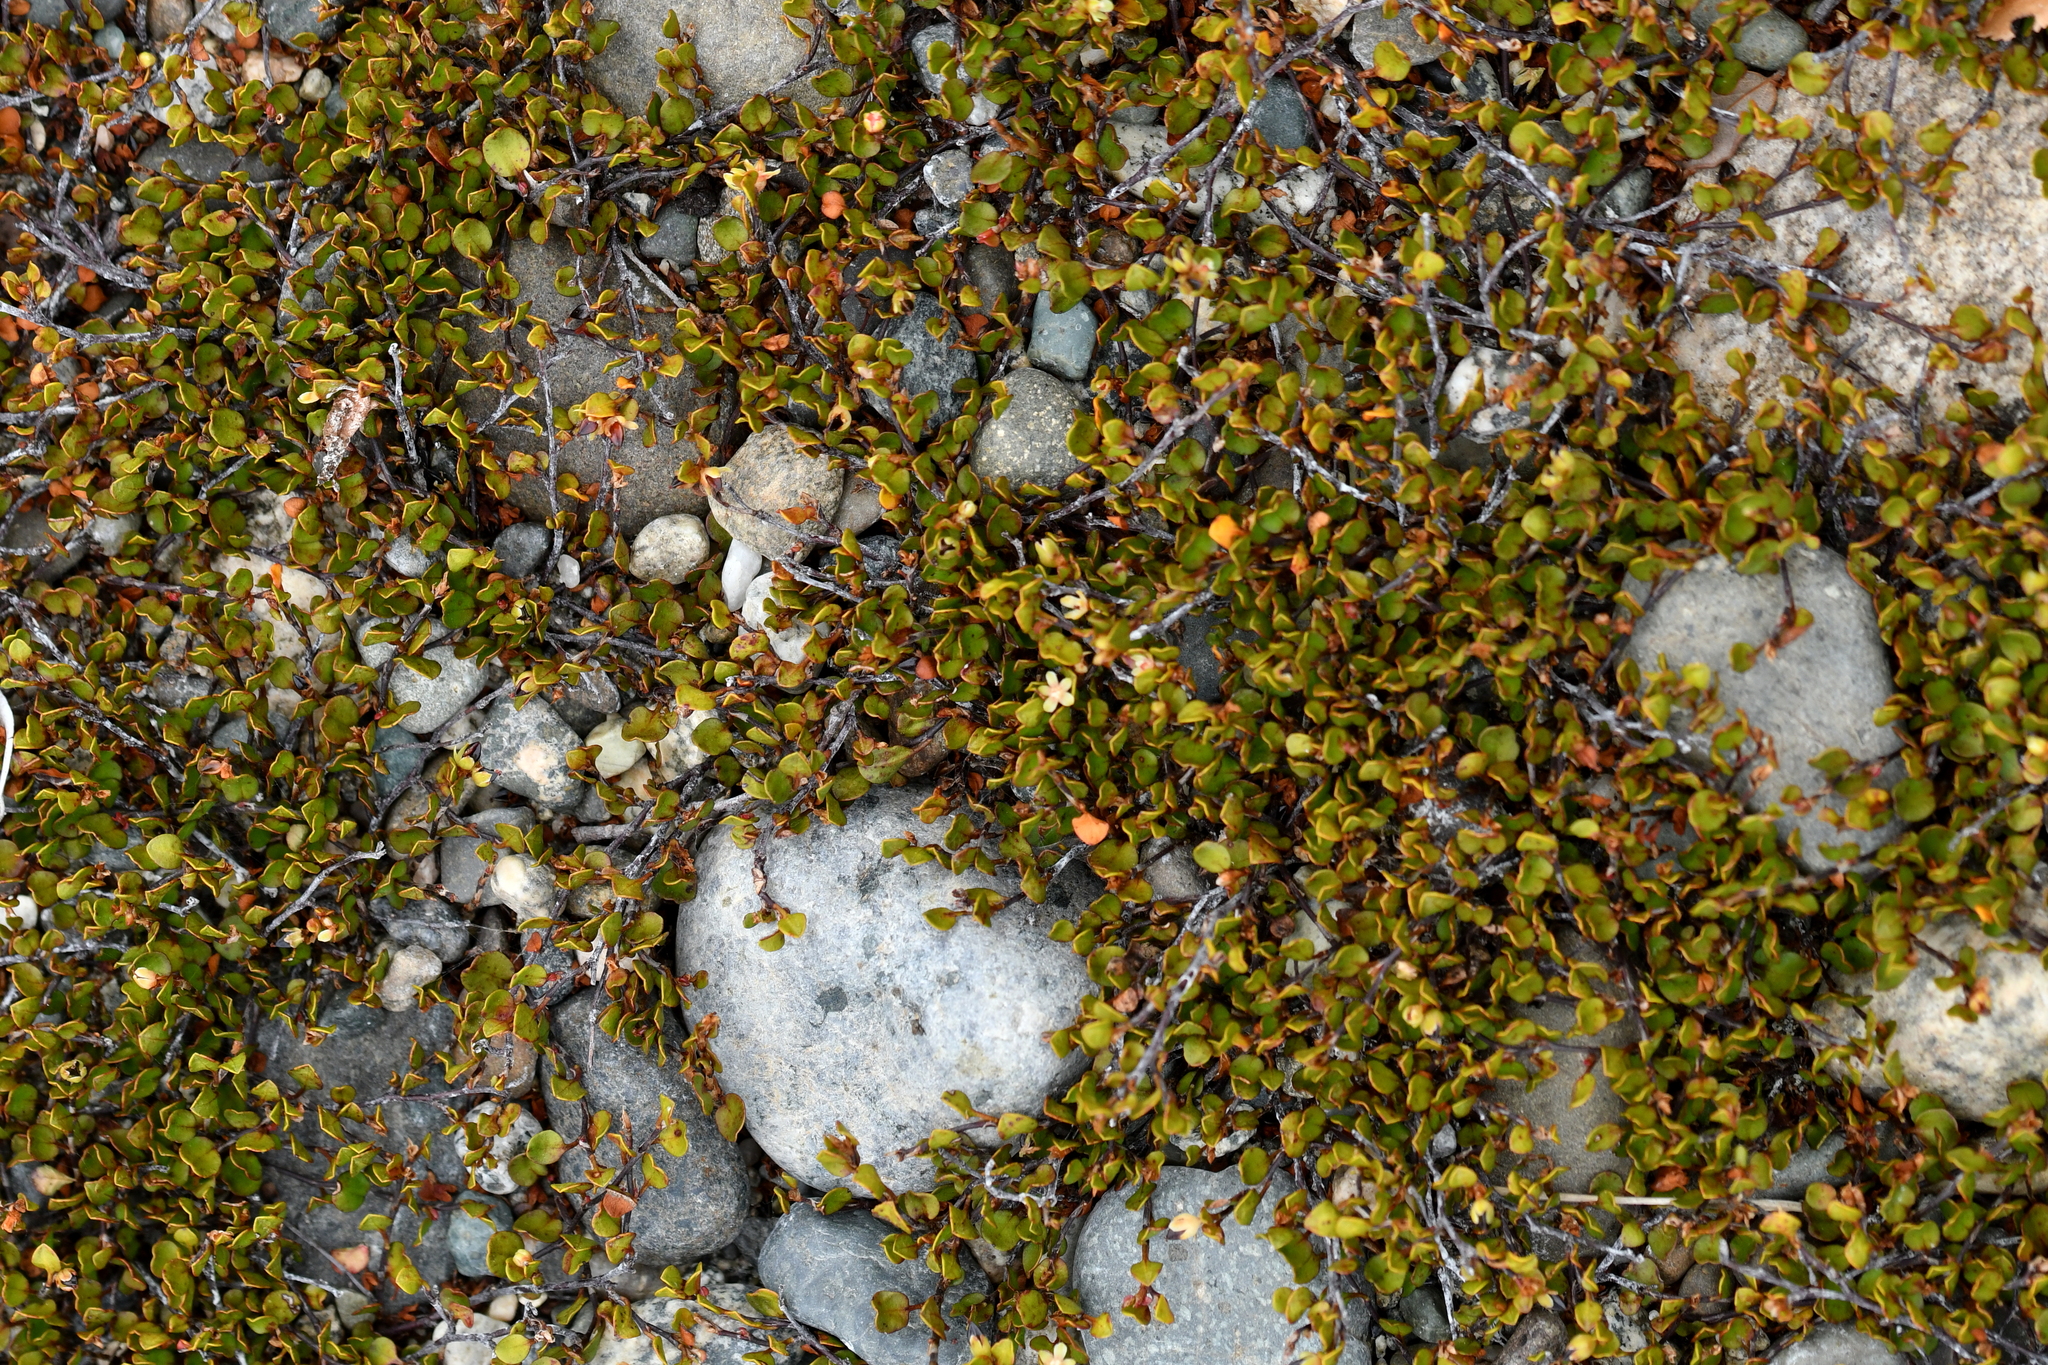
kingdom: Plantae
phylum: Tracheophyta
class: Magnoliopsida
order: Caryophyllales
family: Polygonaceae
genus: Muehlenbeckia
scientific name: Muehlenbeckia axillaris
